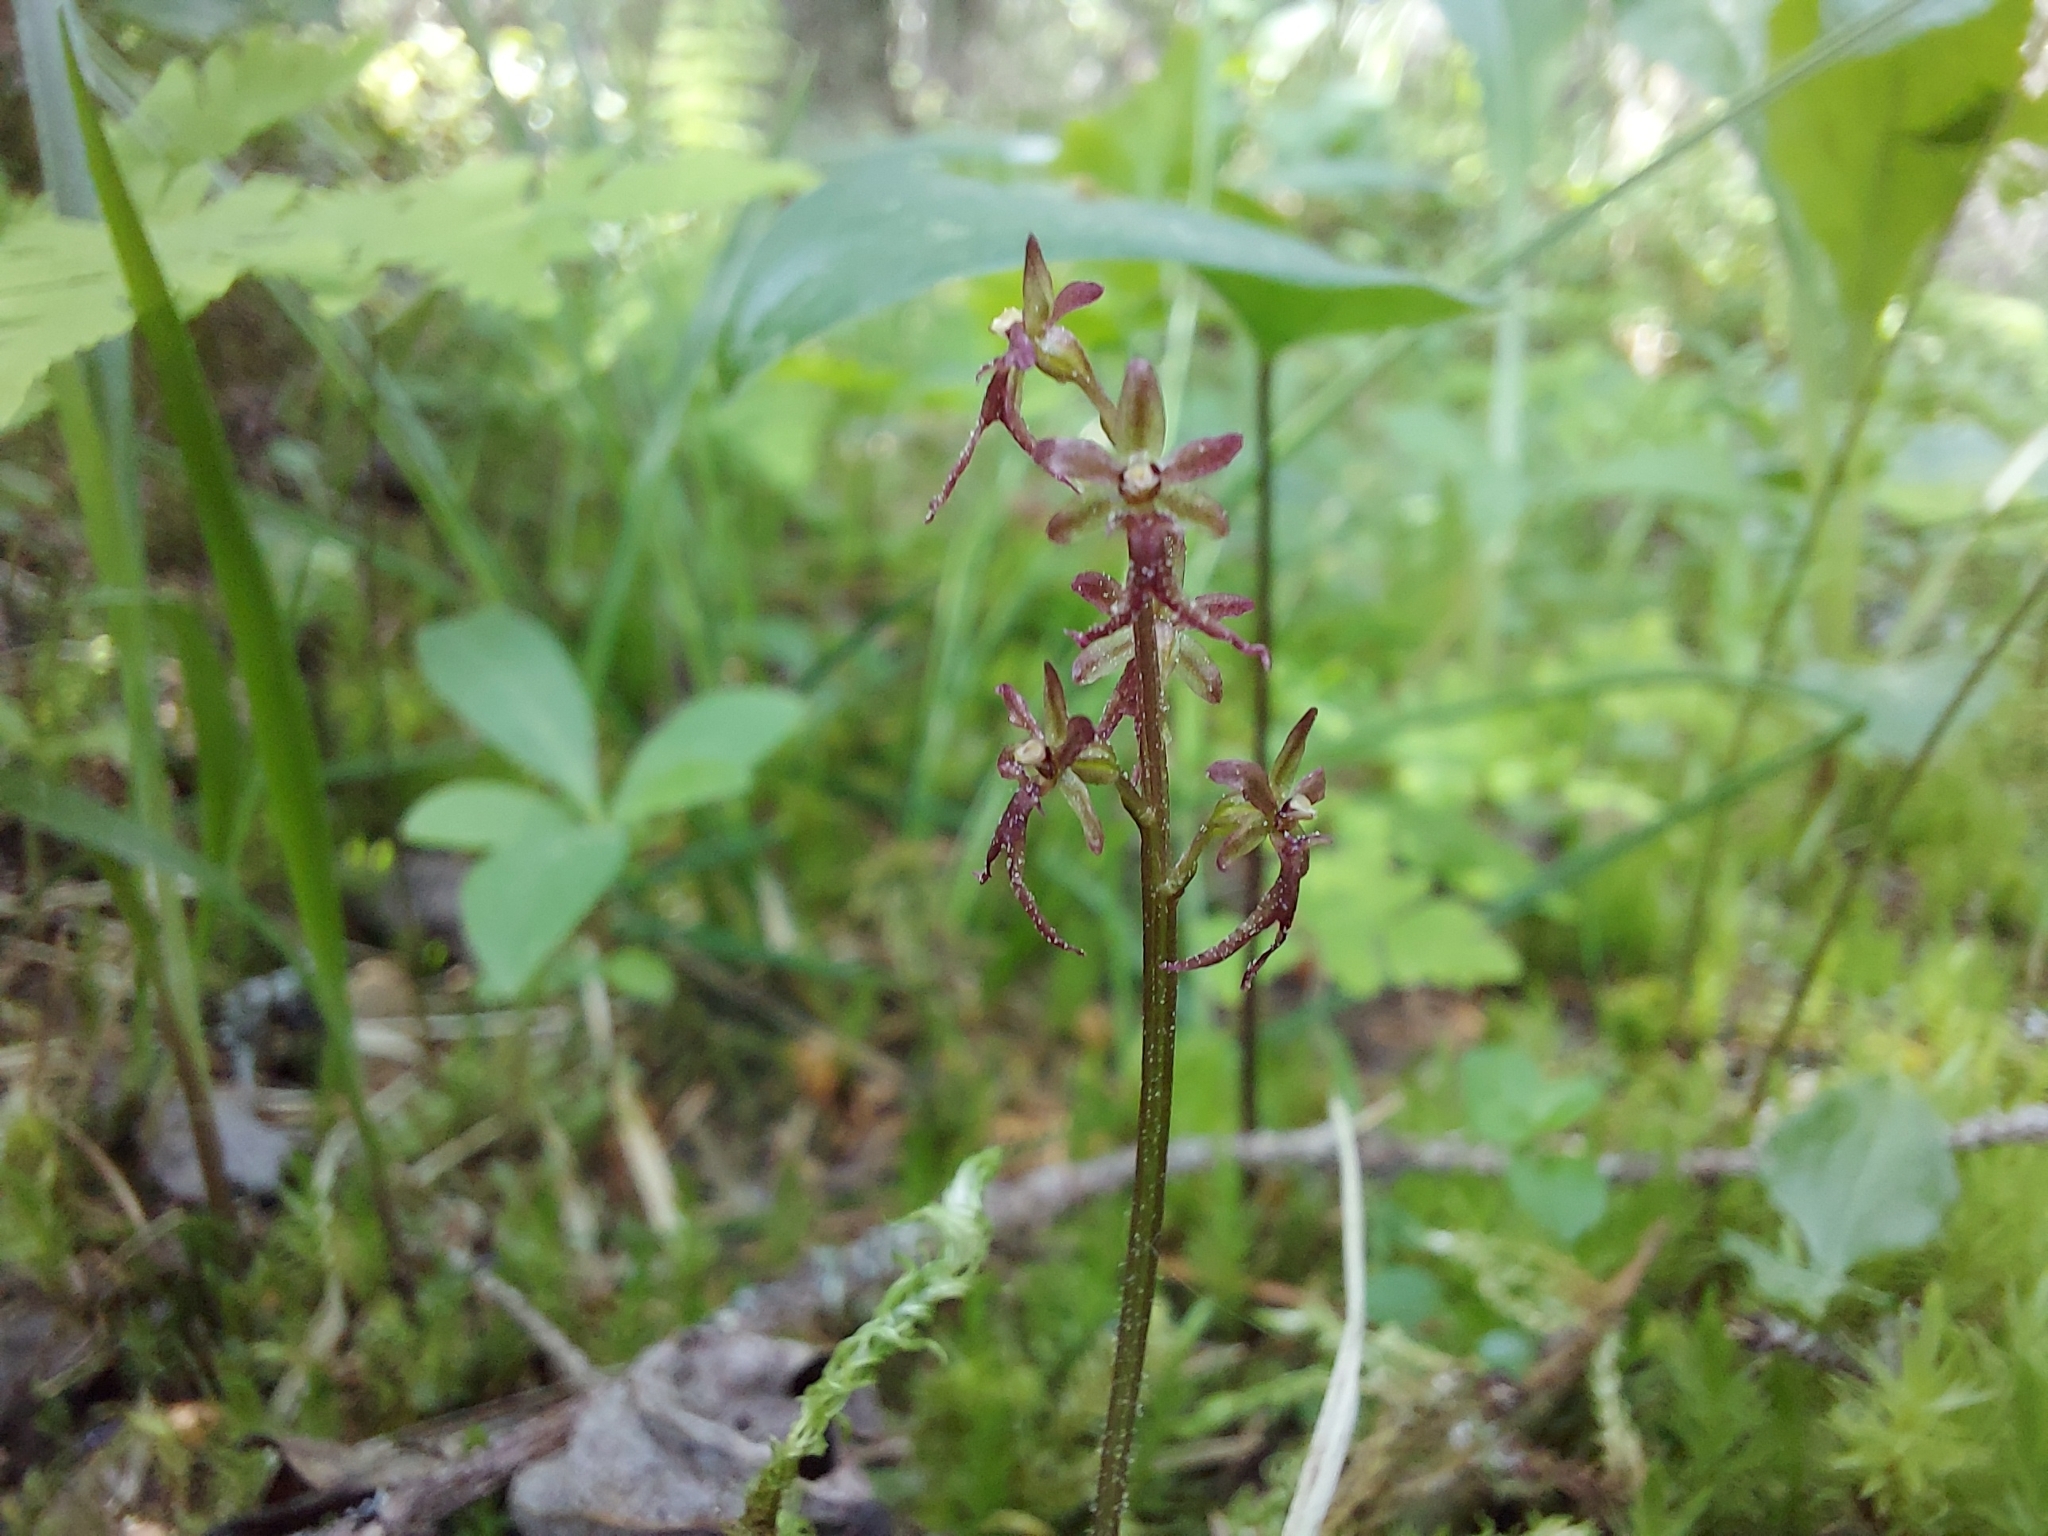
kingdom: Plantae
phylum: Tracheophyta
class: Liliopsida
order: Asparagales
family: Orchidaceae
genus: Neottia
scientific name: Neottia cordata
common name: Lesser twayblade
